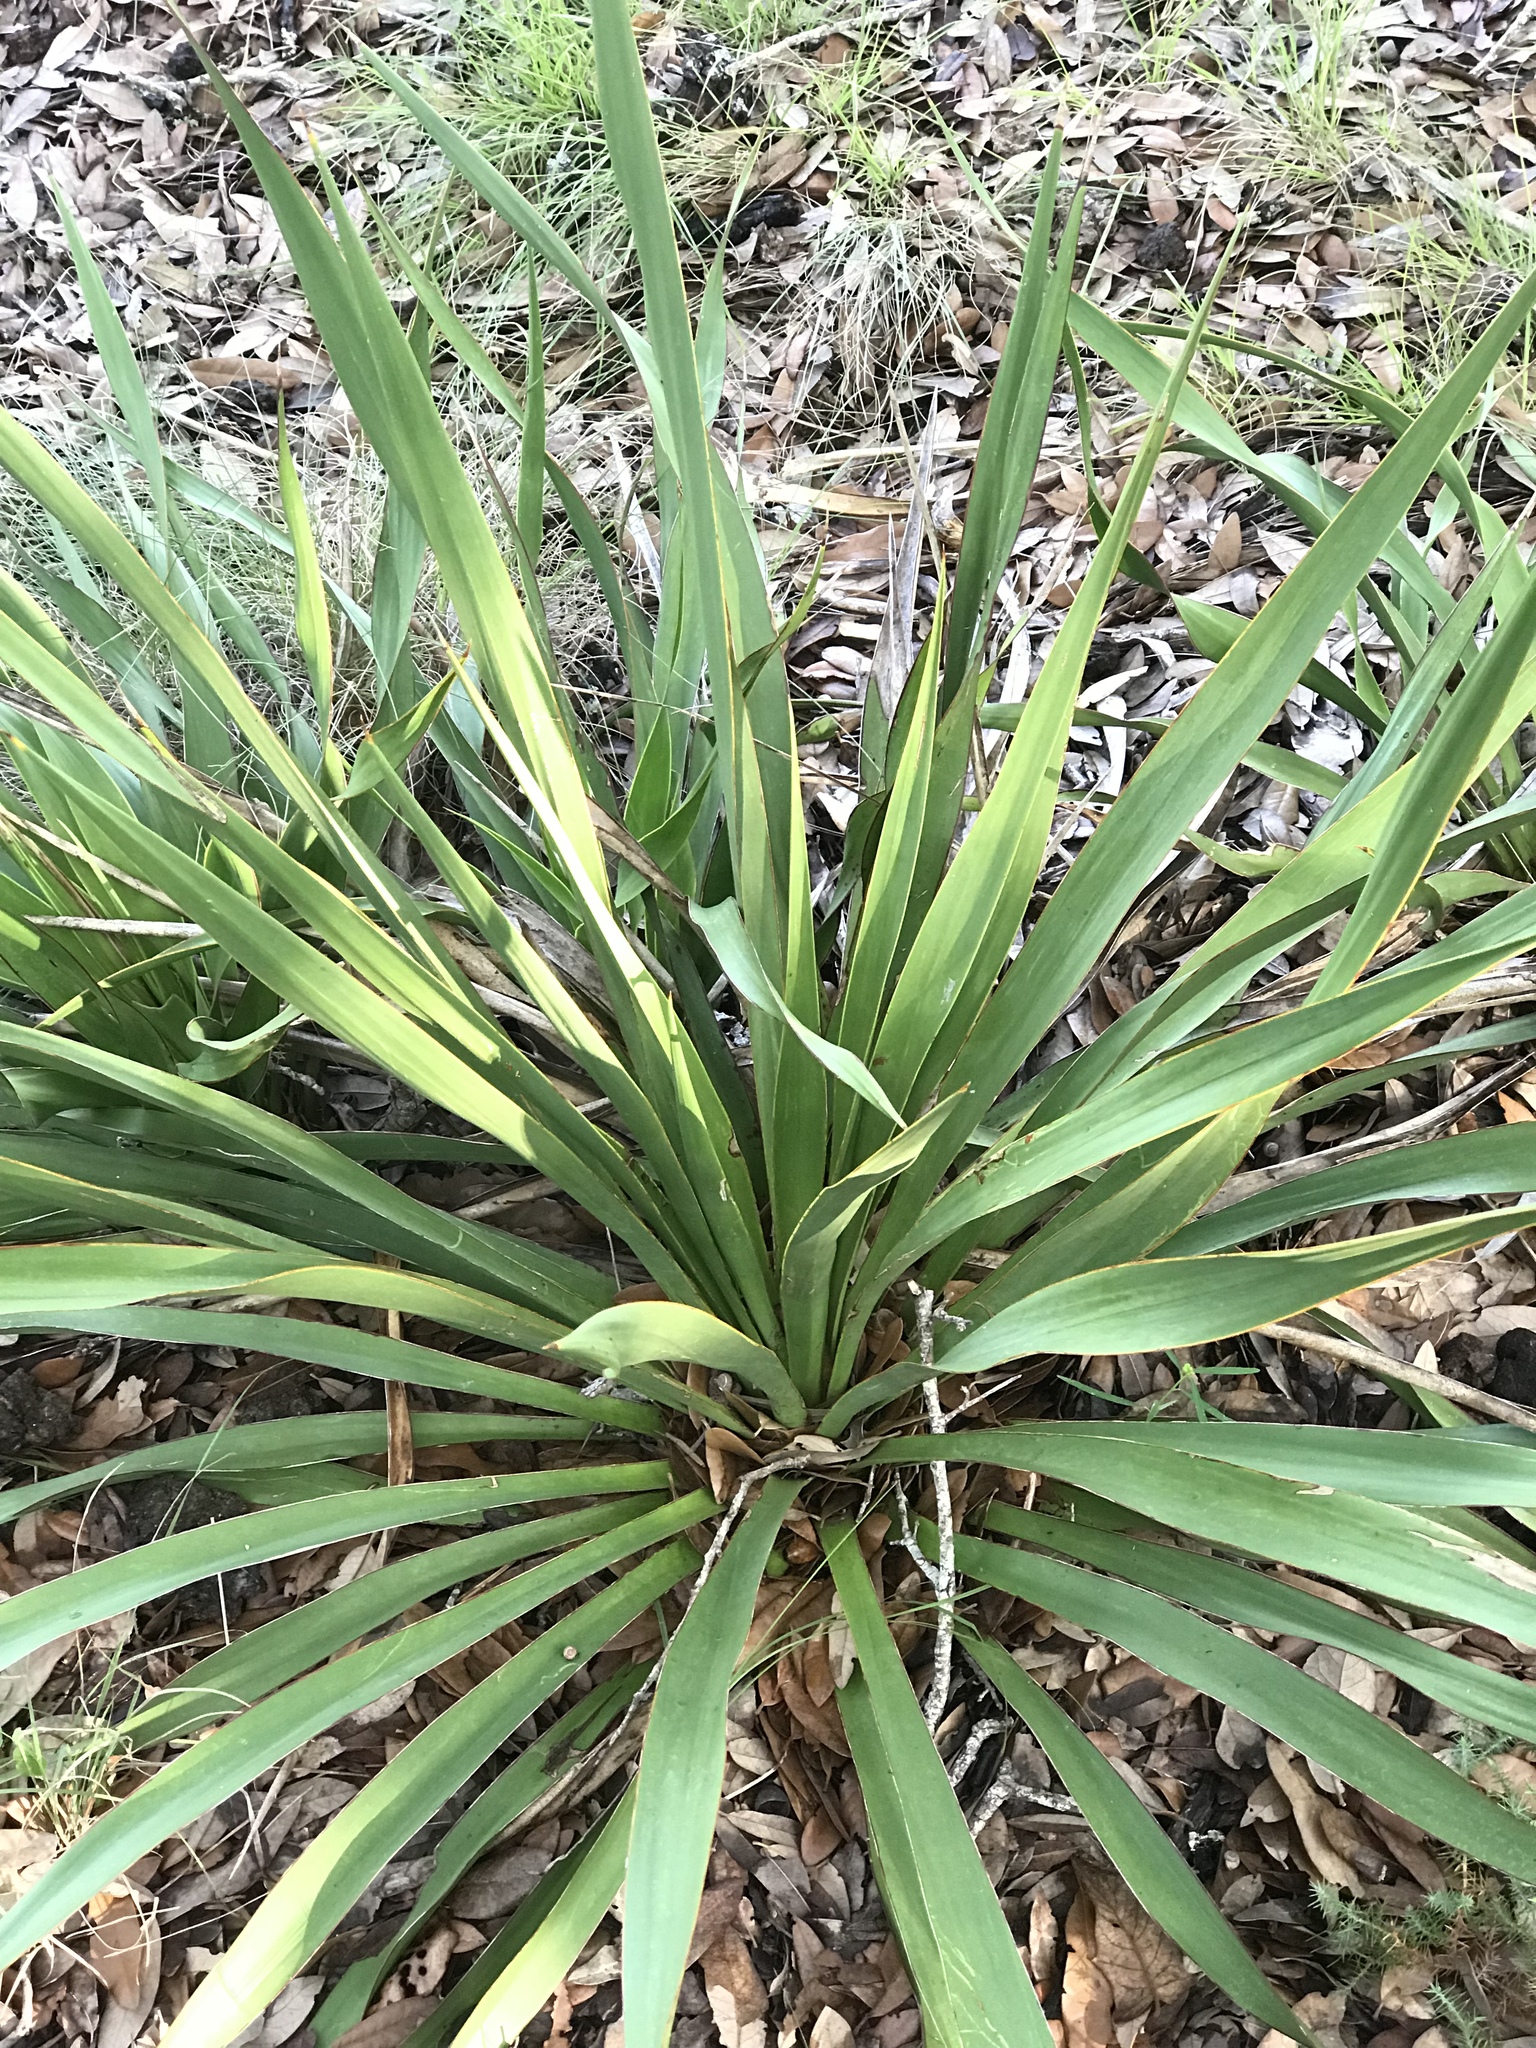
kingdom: Plantae
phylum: Tracheophyta
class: Liliopsida
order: Asparagales
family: Asparagaceae
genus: Yucca
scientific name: Yucca rupicola
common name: Twisted-leaf spanish-dagger
